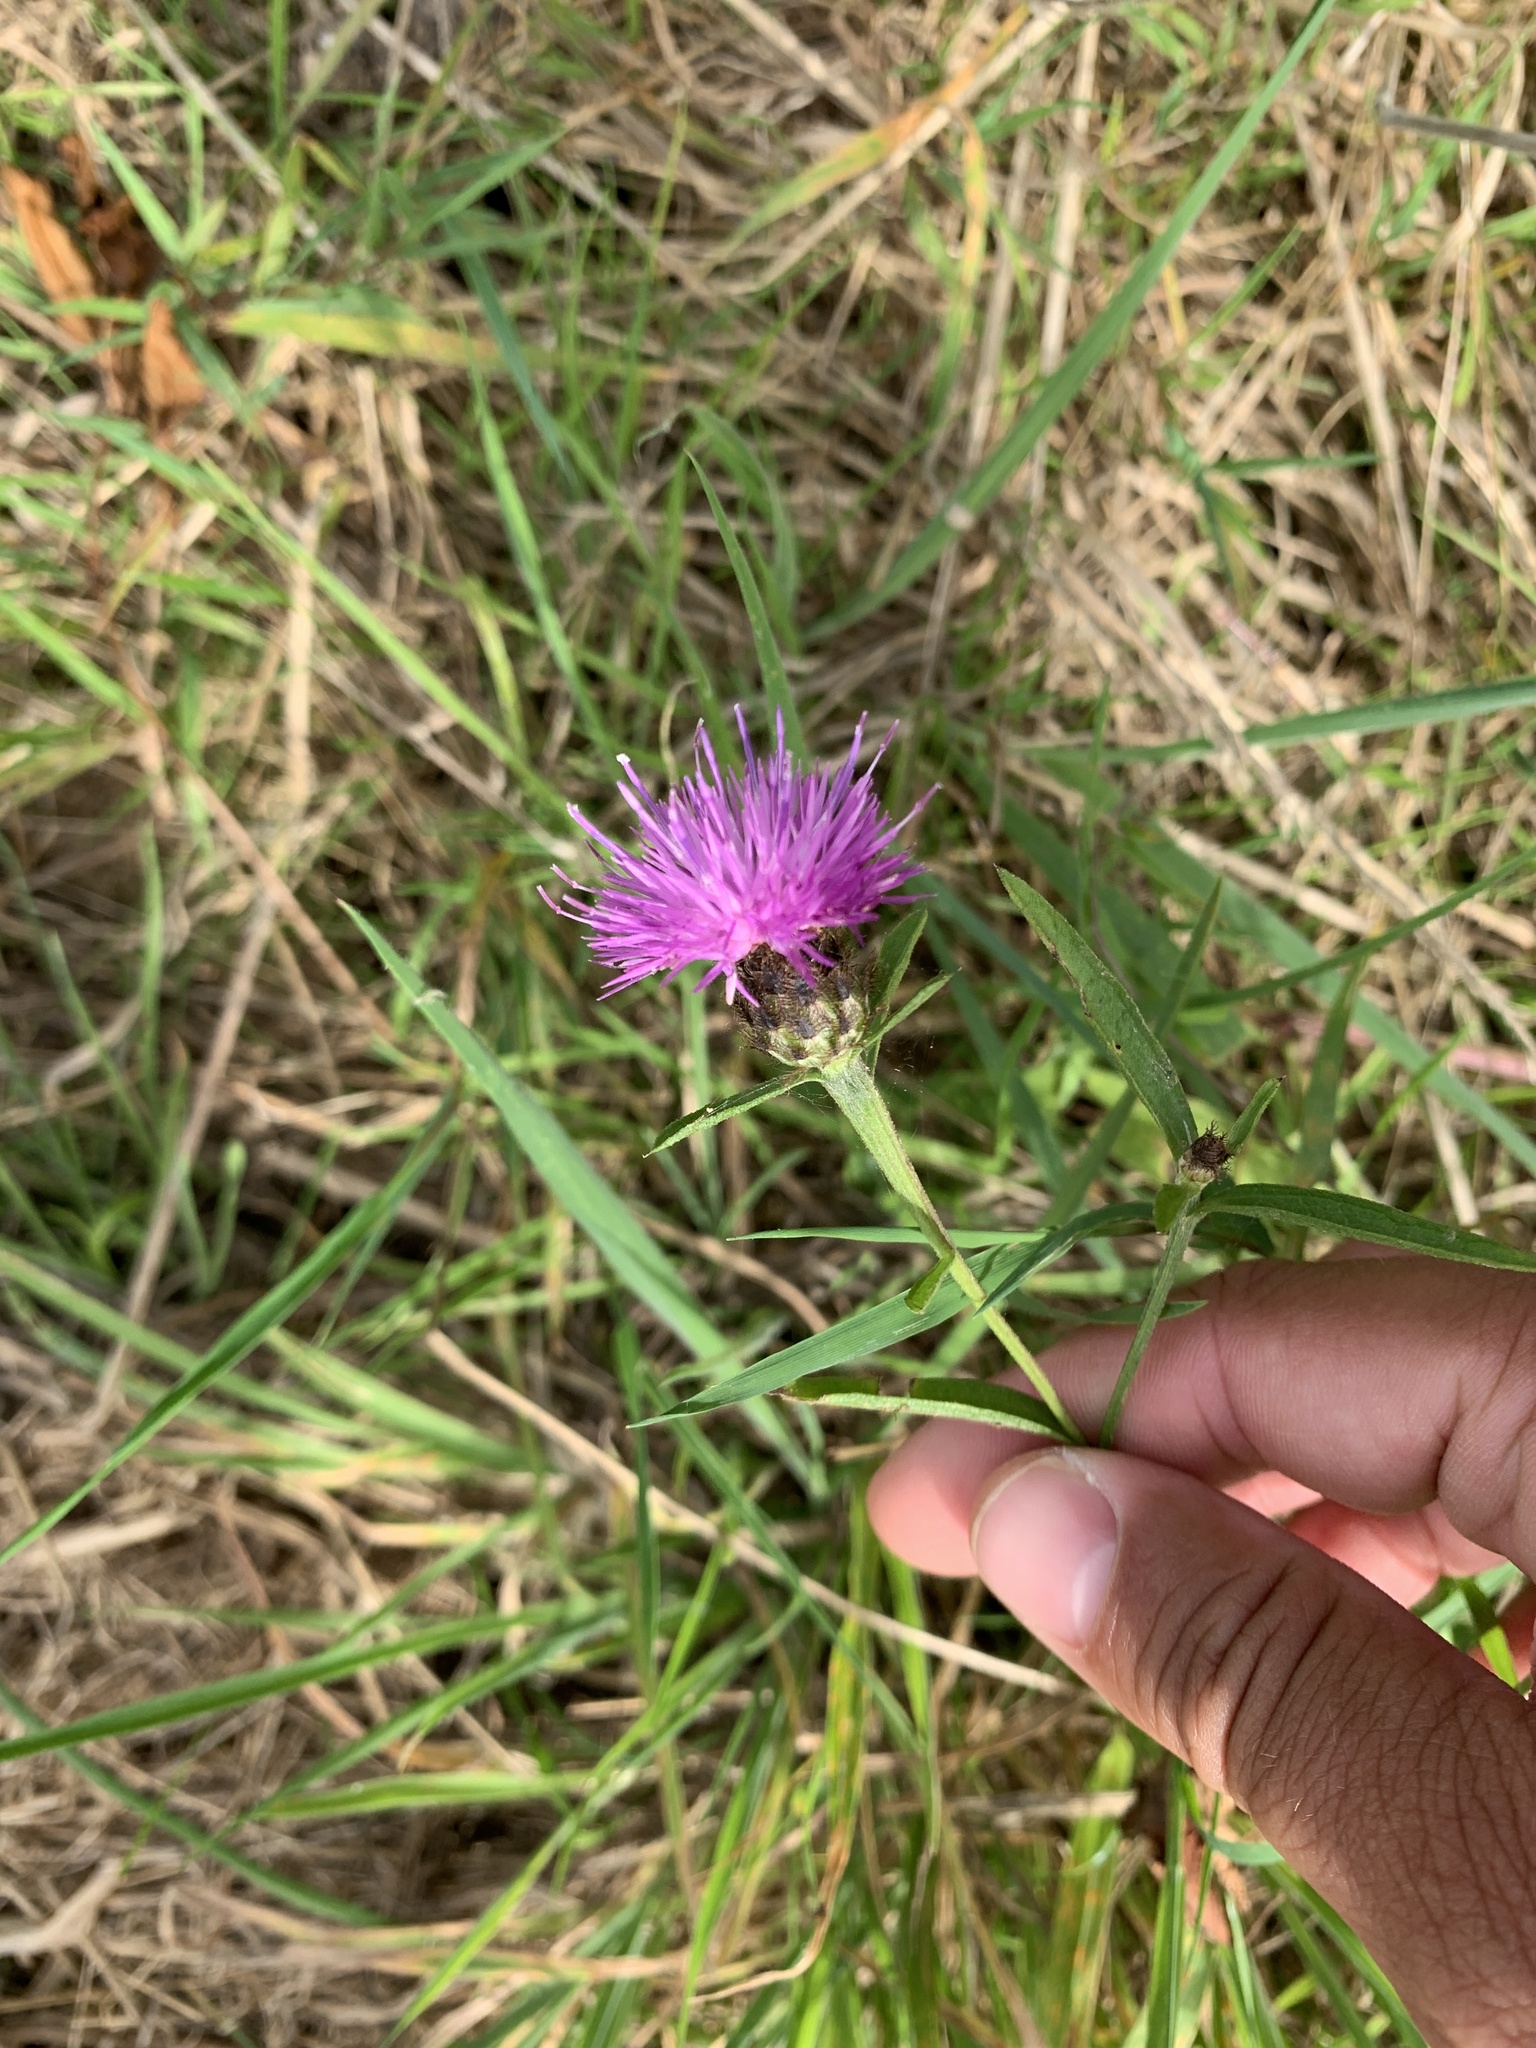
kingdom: Plantae
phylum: Tracheophyta
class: Magnoliopsida
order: Asterales
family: Asteraceae
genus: Centaurea
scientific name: Centaurea nigra
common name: Lesser knapweed
